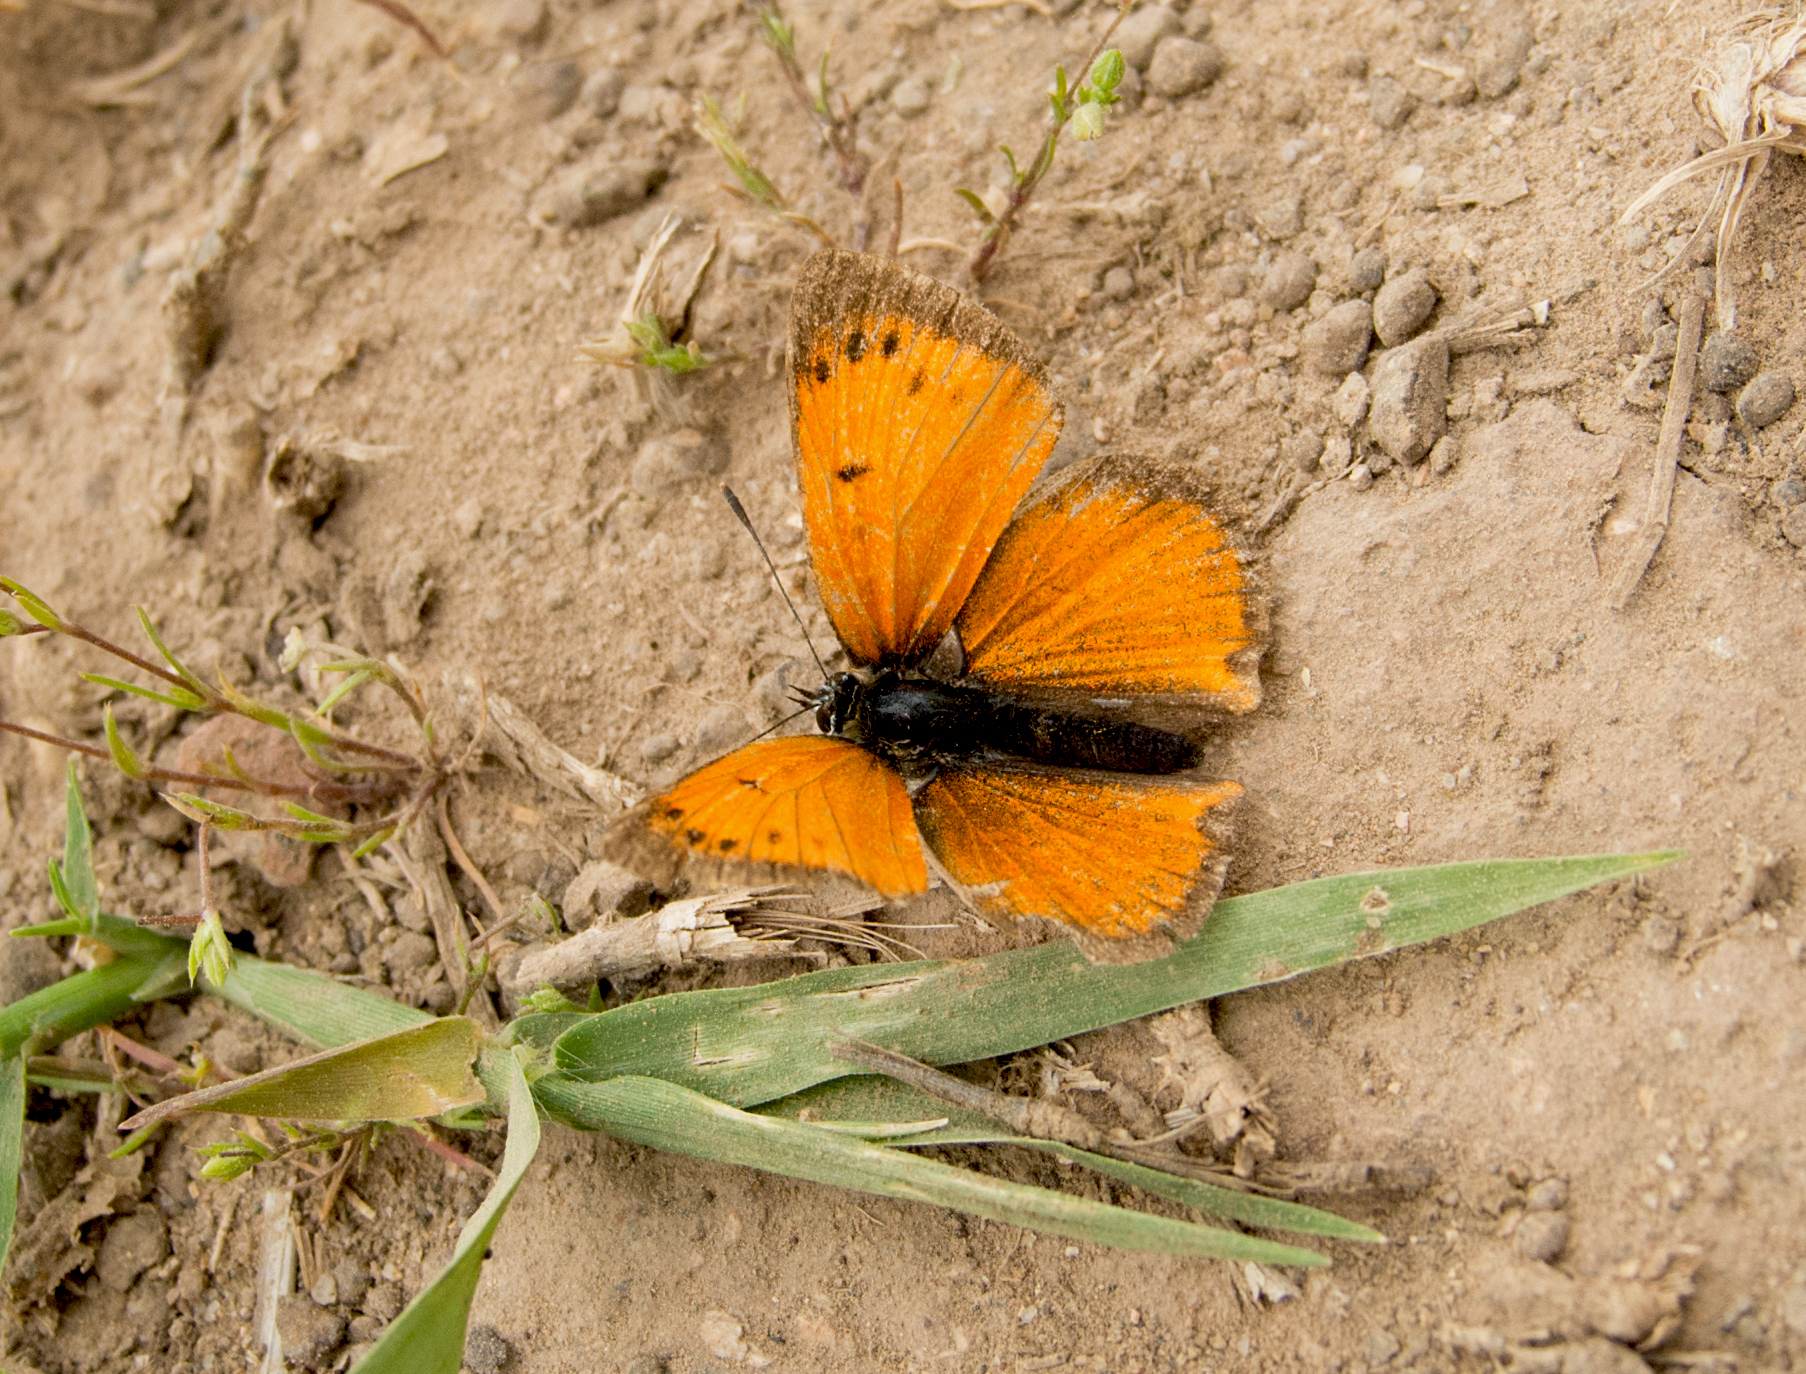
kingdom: Animalia
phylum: Arthropoda
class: Insecta
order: Lepidoptera
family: Lycaenidae
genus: Polyommatus
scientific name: Polyommatus ottomanus
